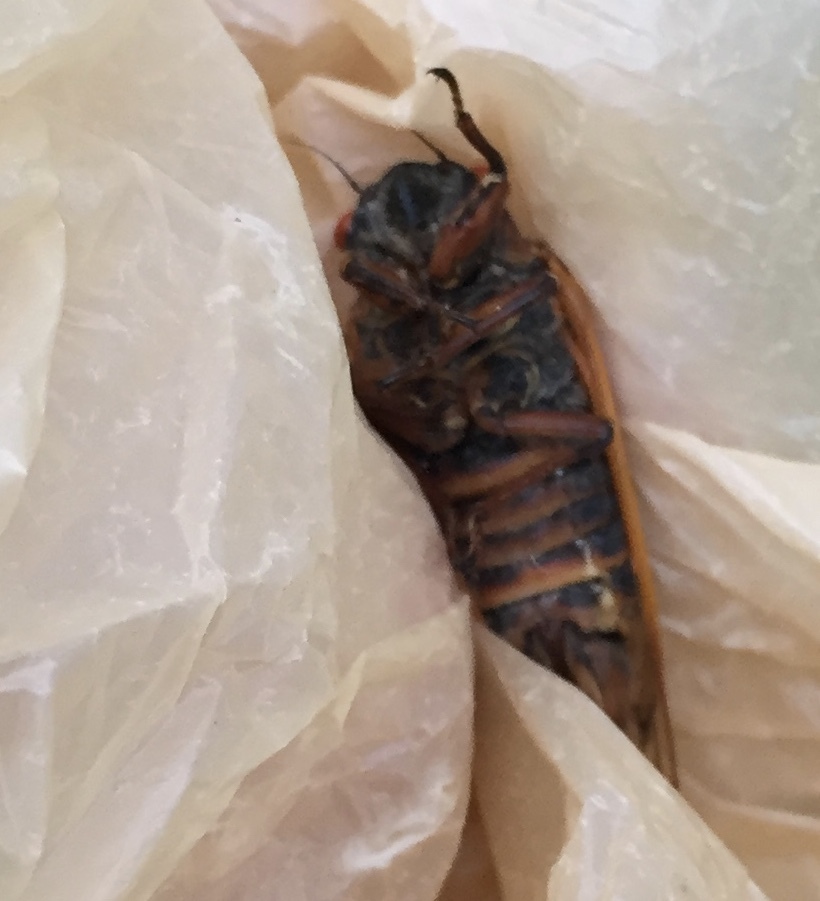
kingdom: Animalia
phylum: Arthropoda
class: Insecta
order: Hemiptera
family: Cicadidae
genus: Magicicada
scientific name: Magicicada septendecula
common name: Decula periodical cicada
